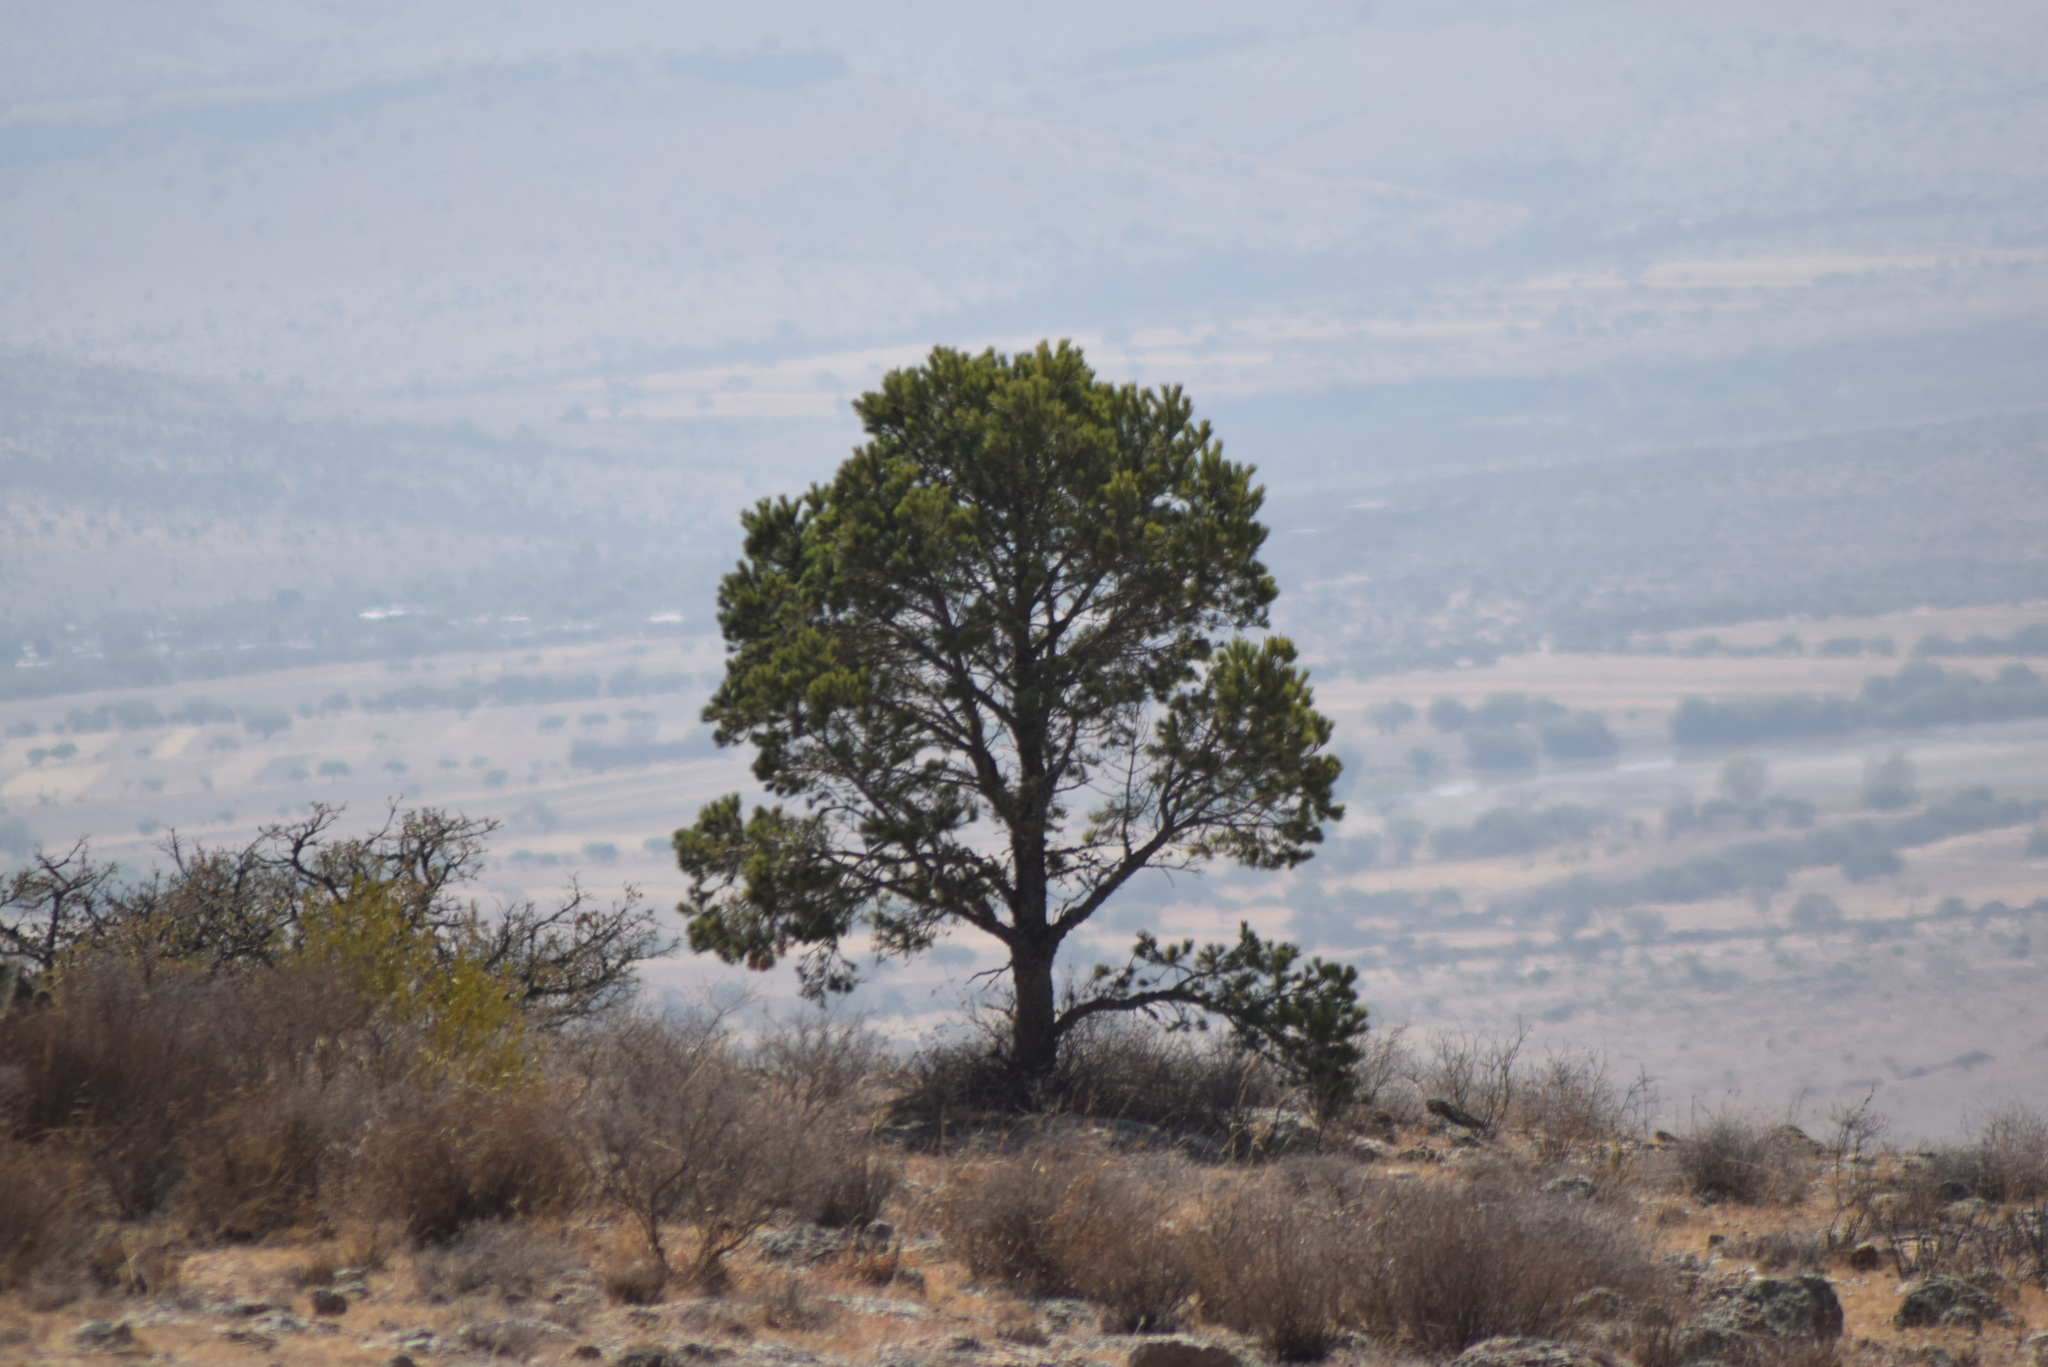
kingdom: Plantae
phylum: Tracheophyta
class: Pinopsida
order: Pinales
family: Pinaceae
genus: Pinus
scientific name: Pinus cembroides
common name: Mexican nut pine
